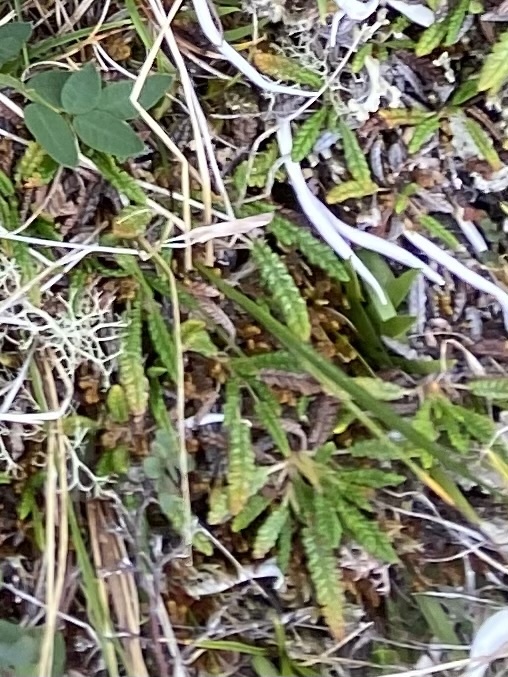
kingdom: Plantae
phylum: Tracheophyta
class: Magnoliopsida
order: Rosales
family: Rosaceae
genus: Dryas
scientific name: Dryas octopetala
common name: Eight-petal mountain-avens
